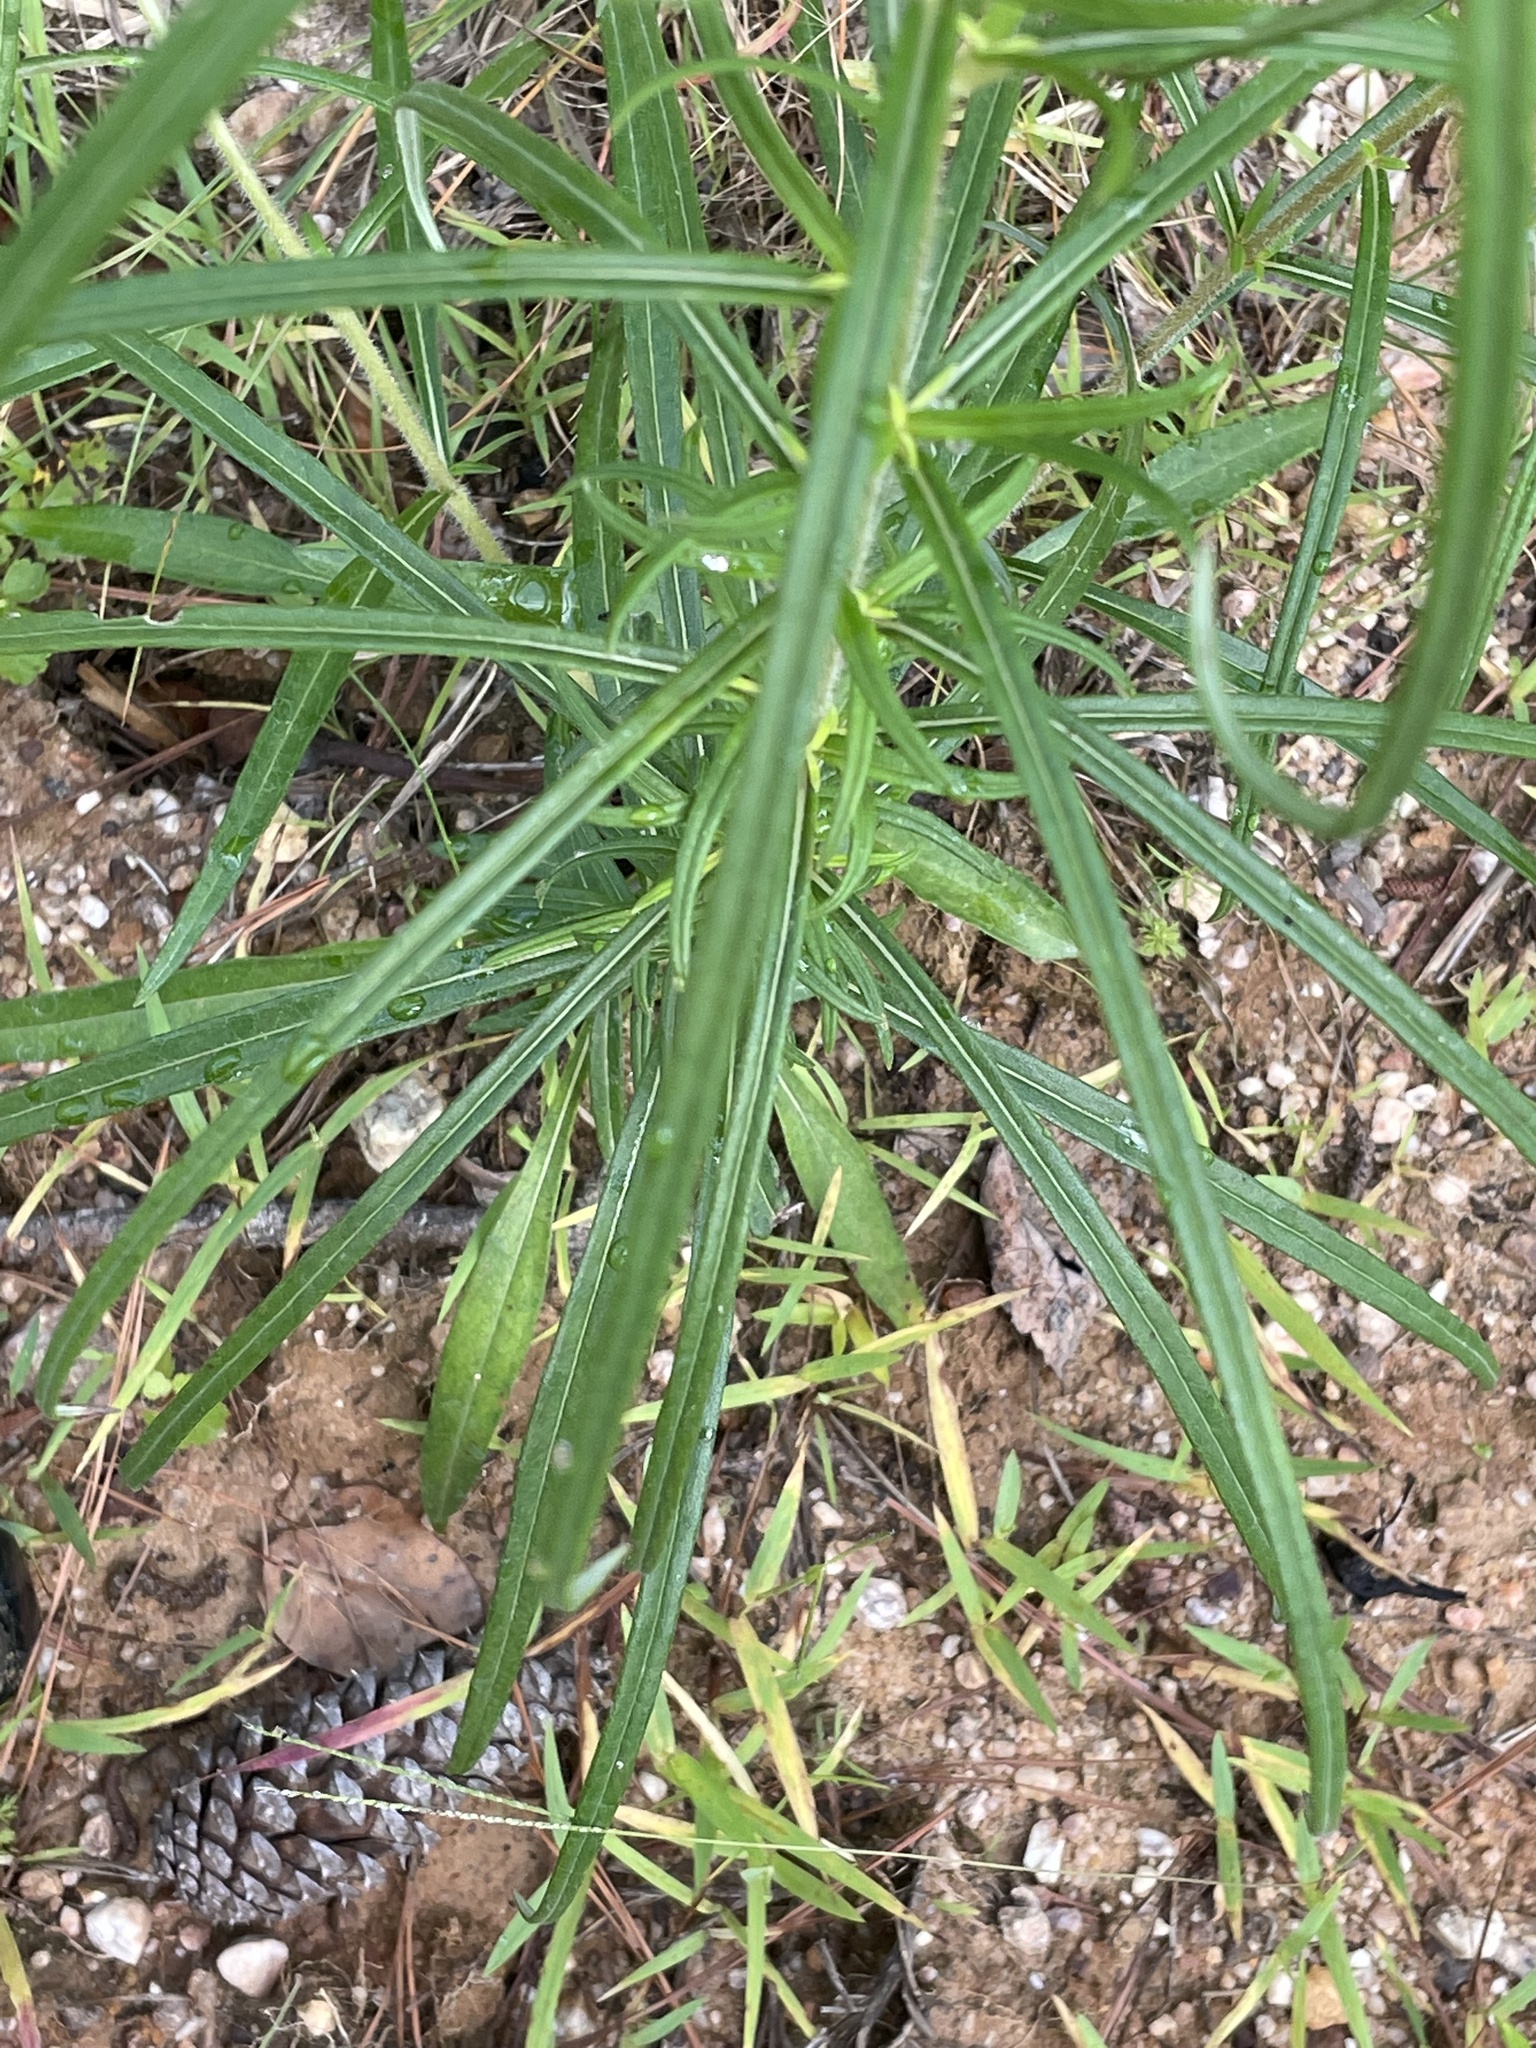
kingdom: Plantae
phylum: Tracheophyta
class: Magnoliopsida
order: Asterales
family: Asteraceae
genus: Helianthus
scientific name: Helianthus angustifolius
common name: Swamp sunflower
